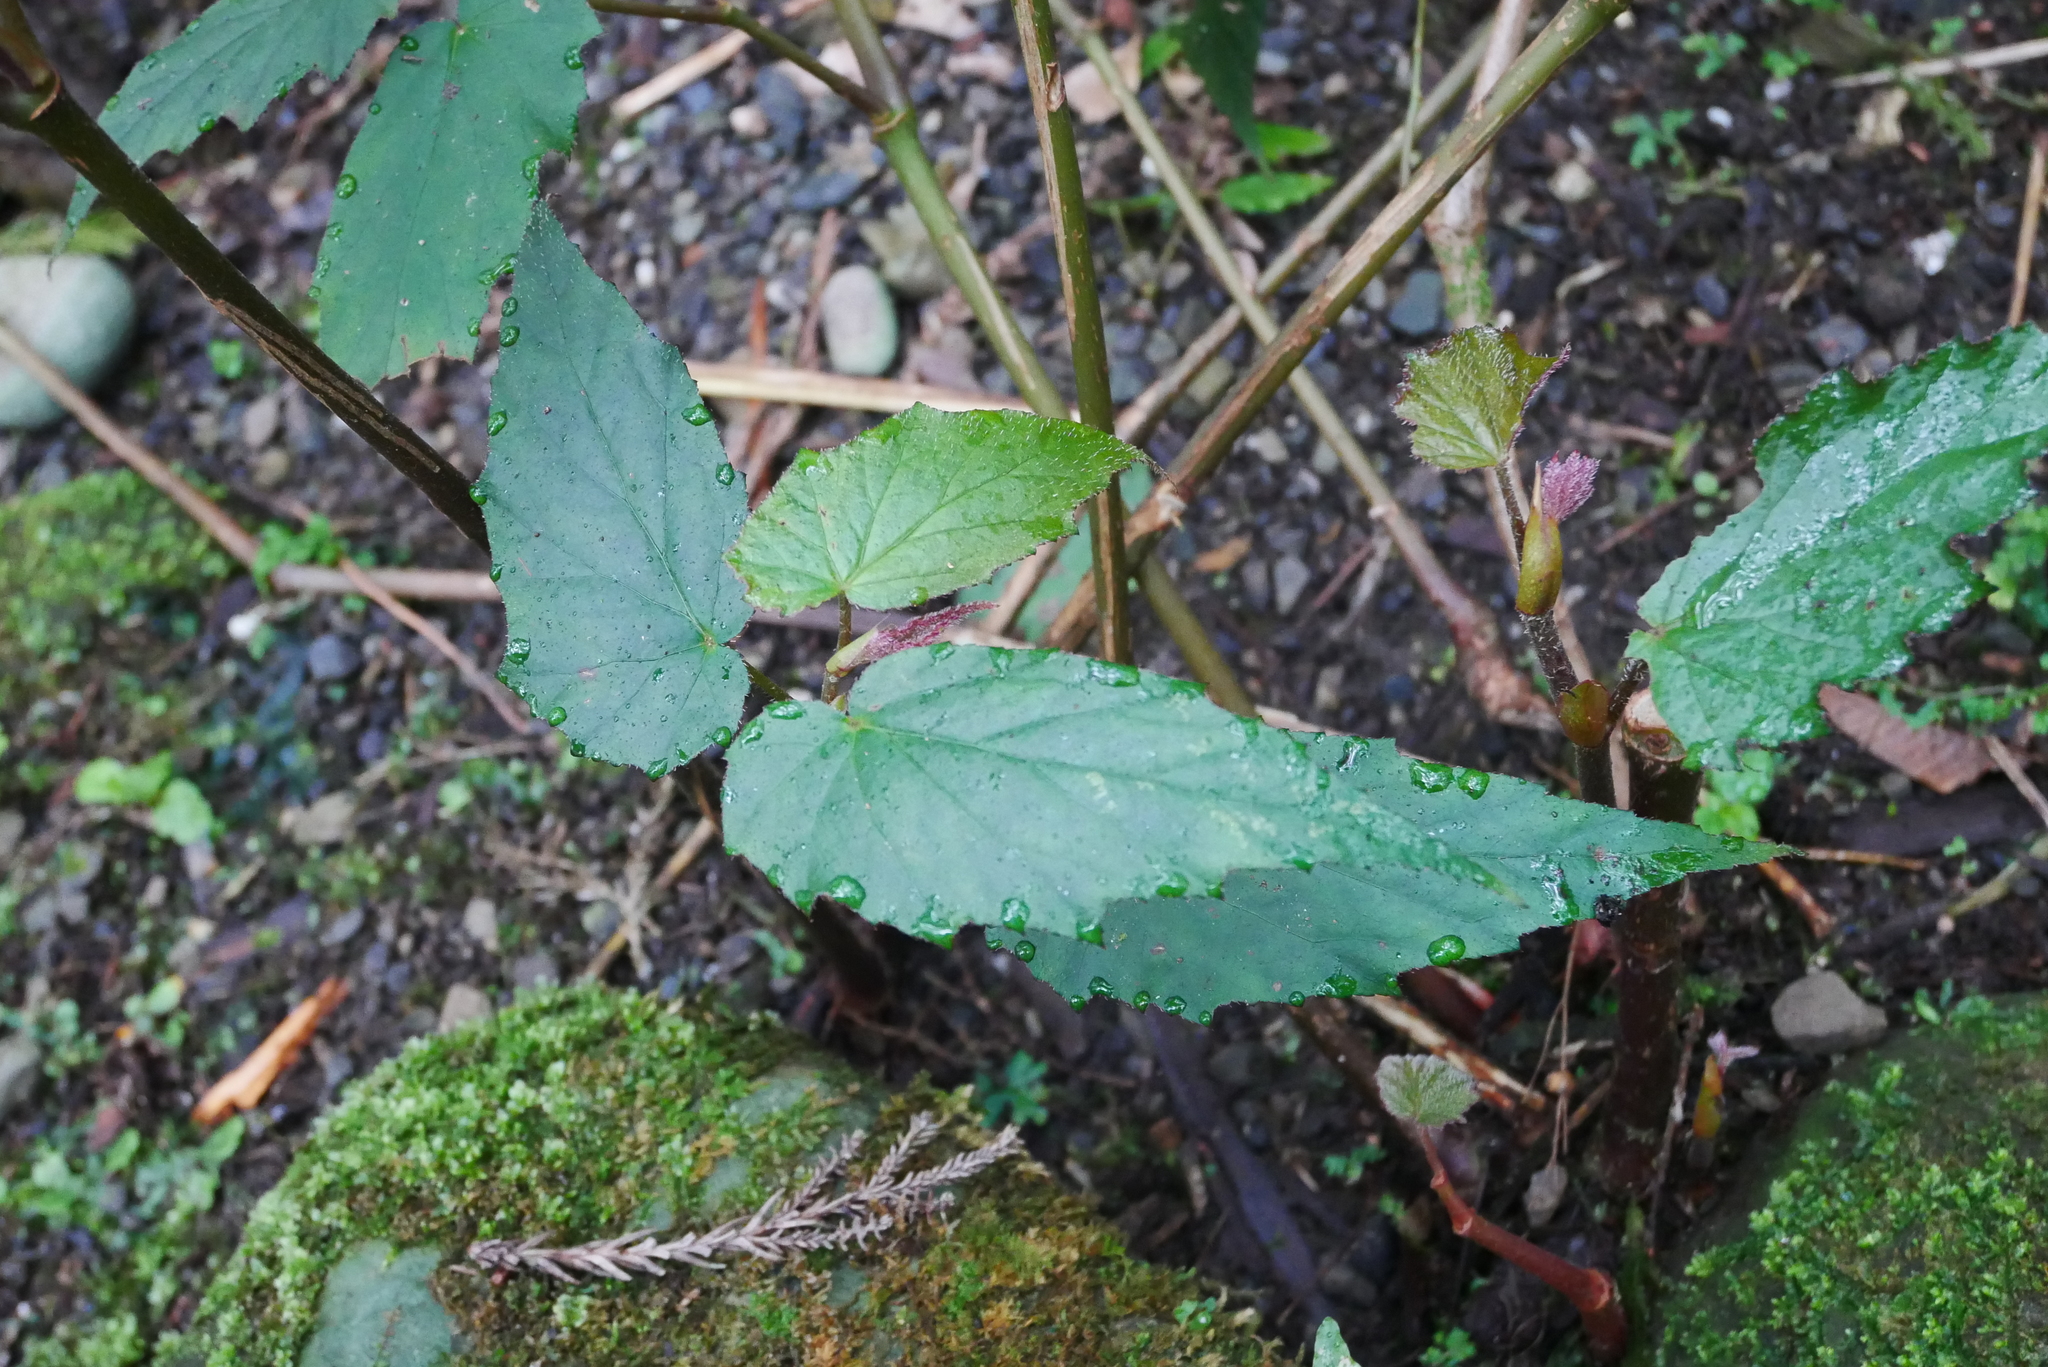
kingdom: Plantae
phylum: Tracheophyta
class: Magnoliopsida
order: Cucurbitales
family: Begoniaceae
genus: Begonia
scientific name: Begonia buimontana
